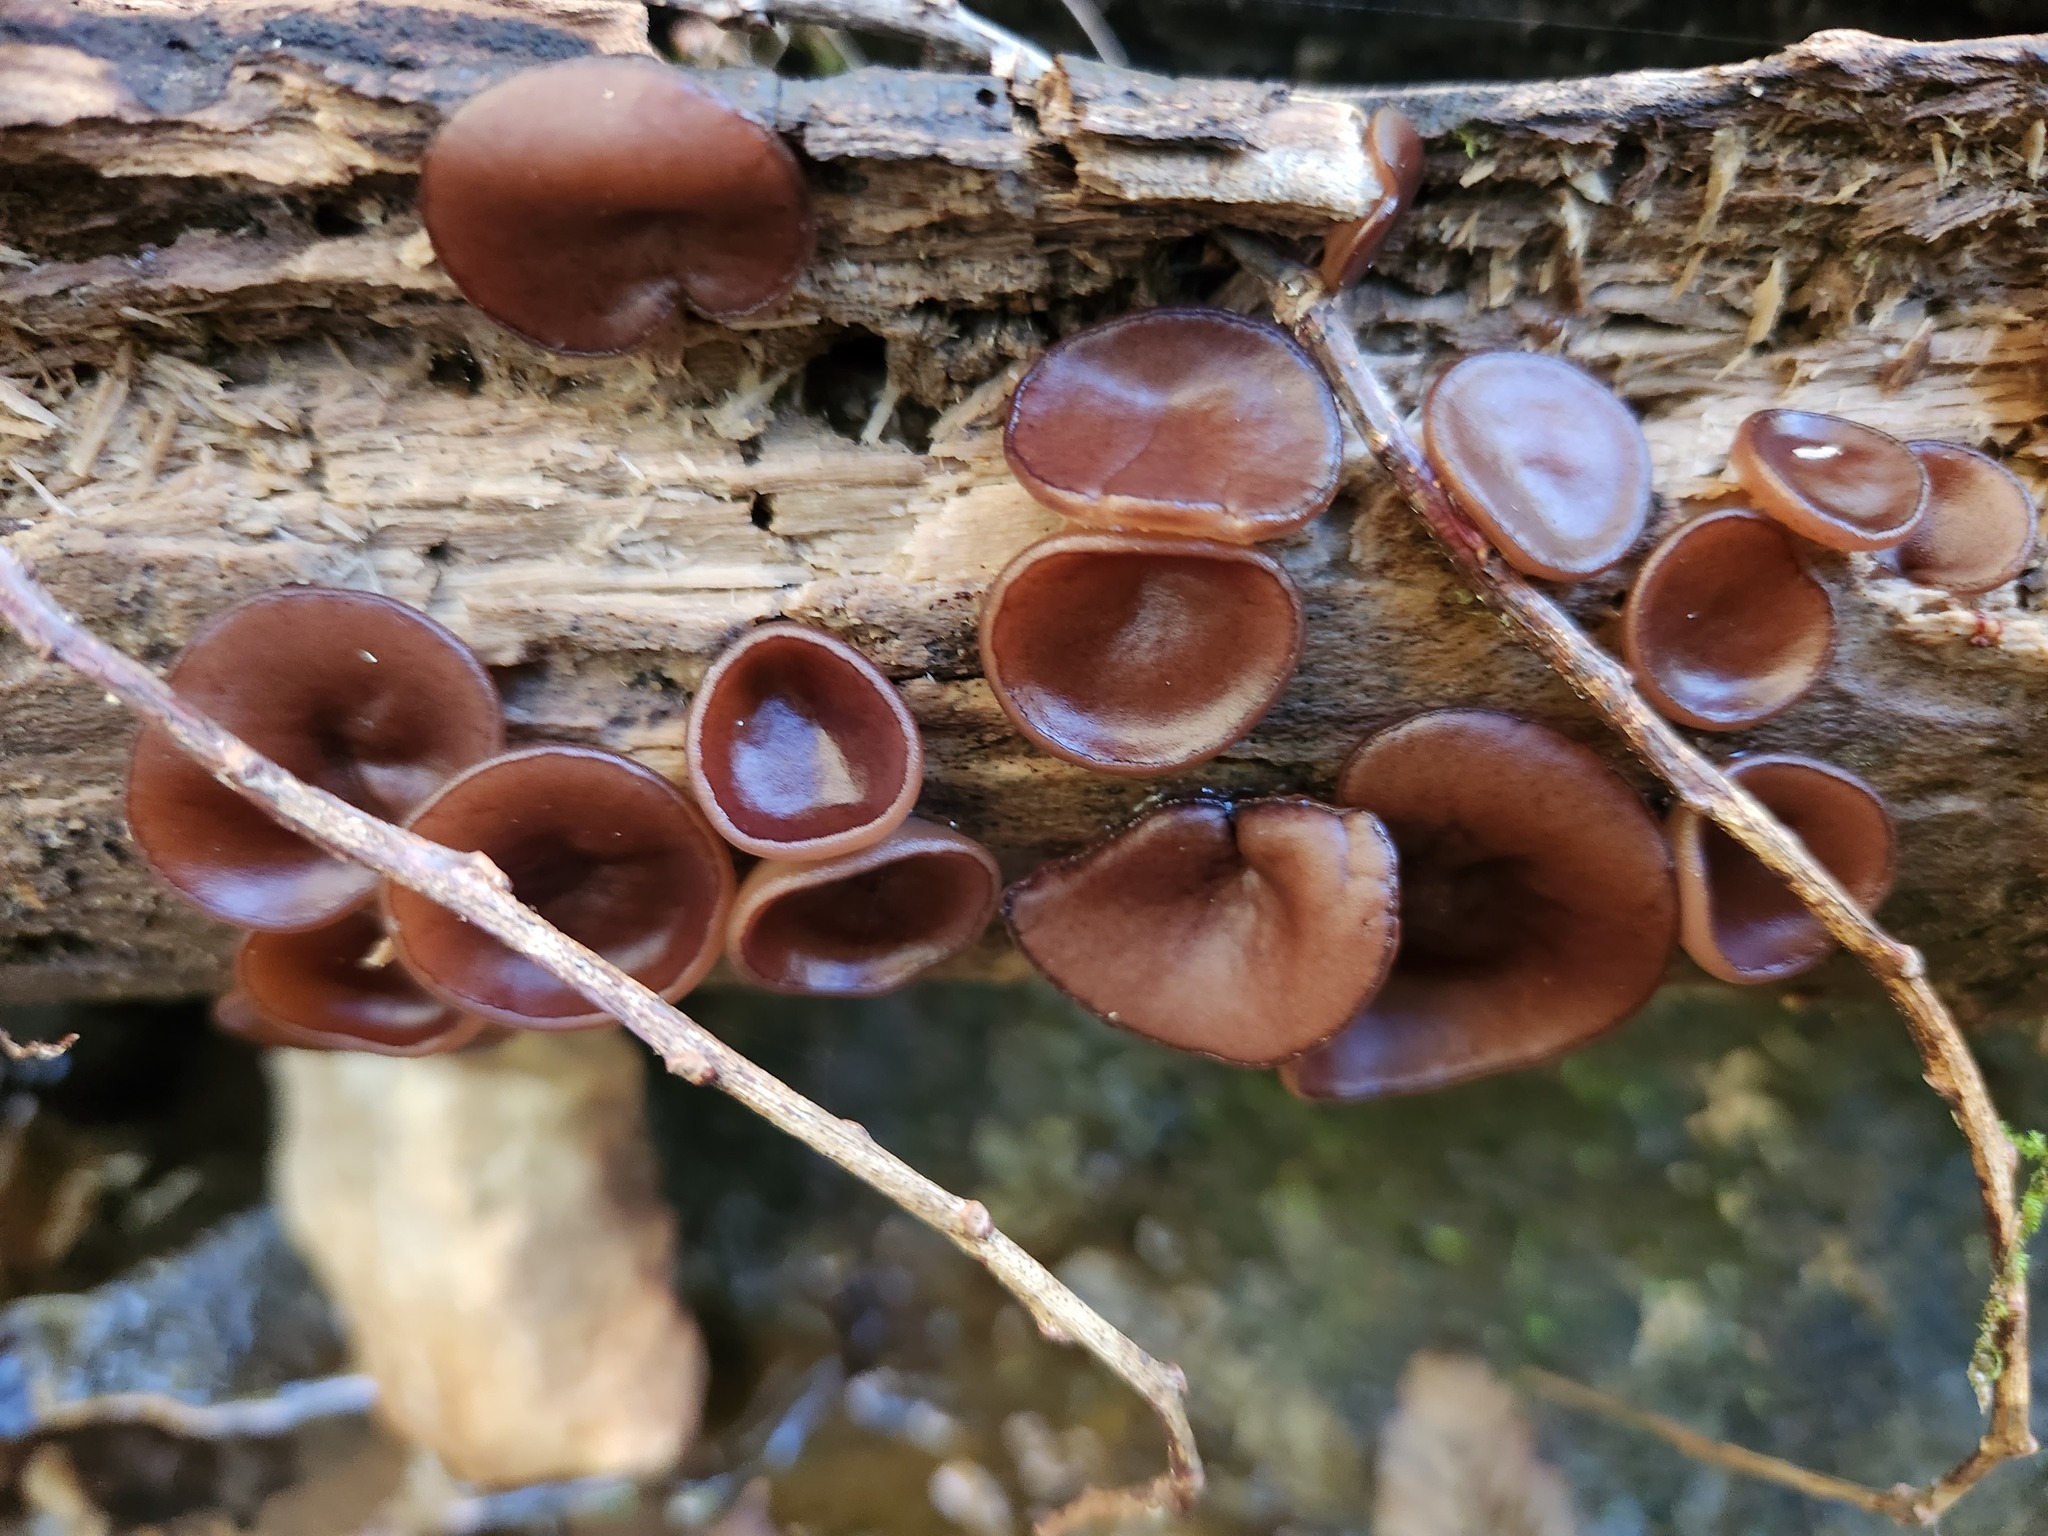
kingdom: Fungi
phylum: Ascomycota
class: Pezizomycetes
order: Pezizales
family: Pezizaceae
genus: Pachyella
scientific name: Pachyella clypeata
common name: Copper penny fungus
